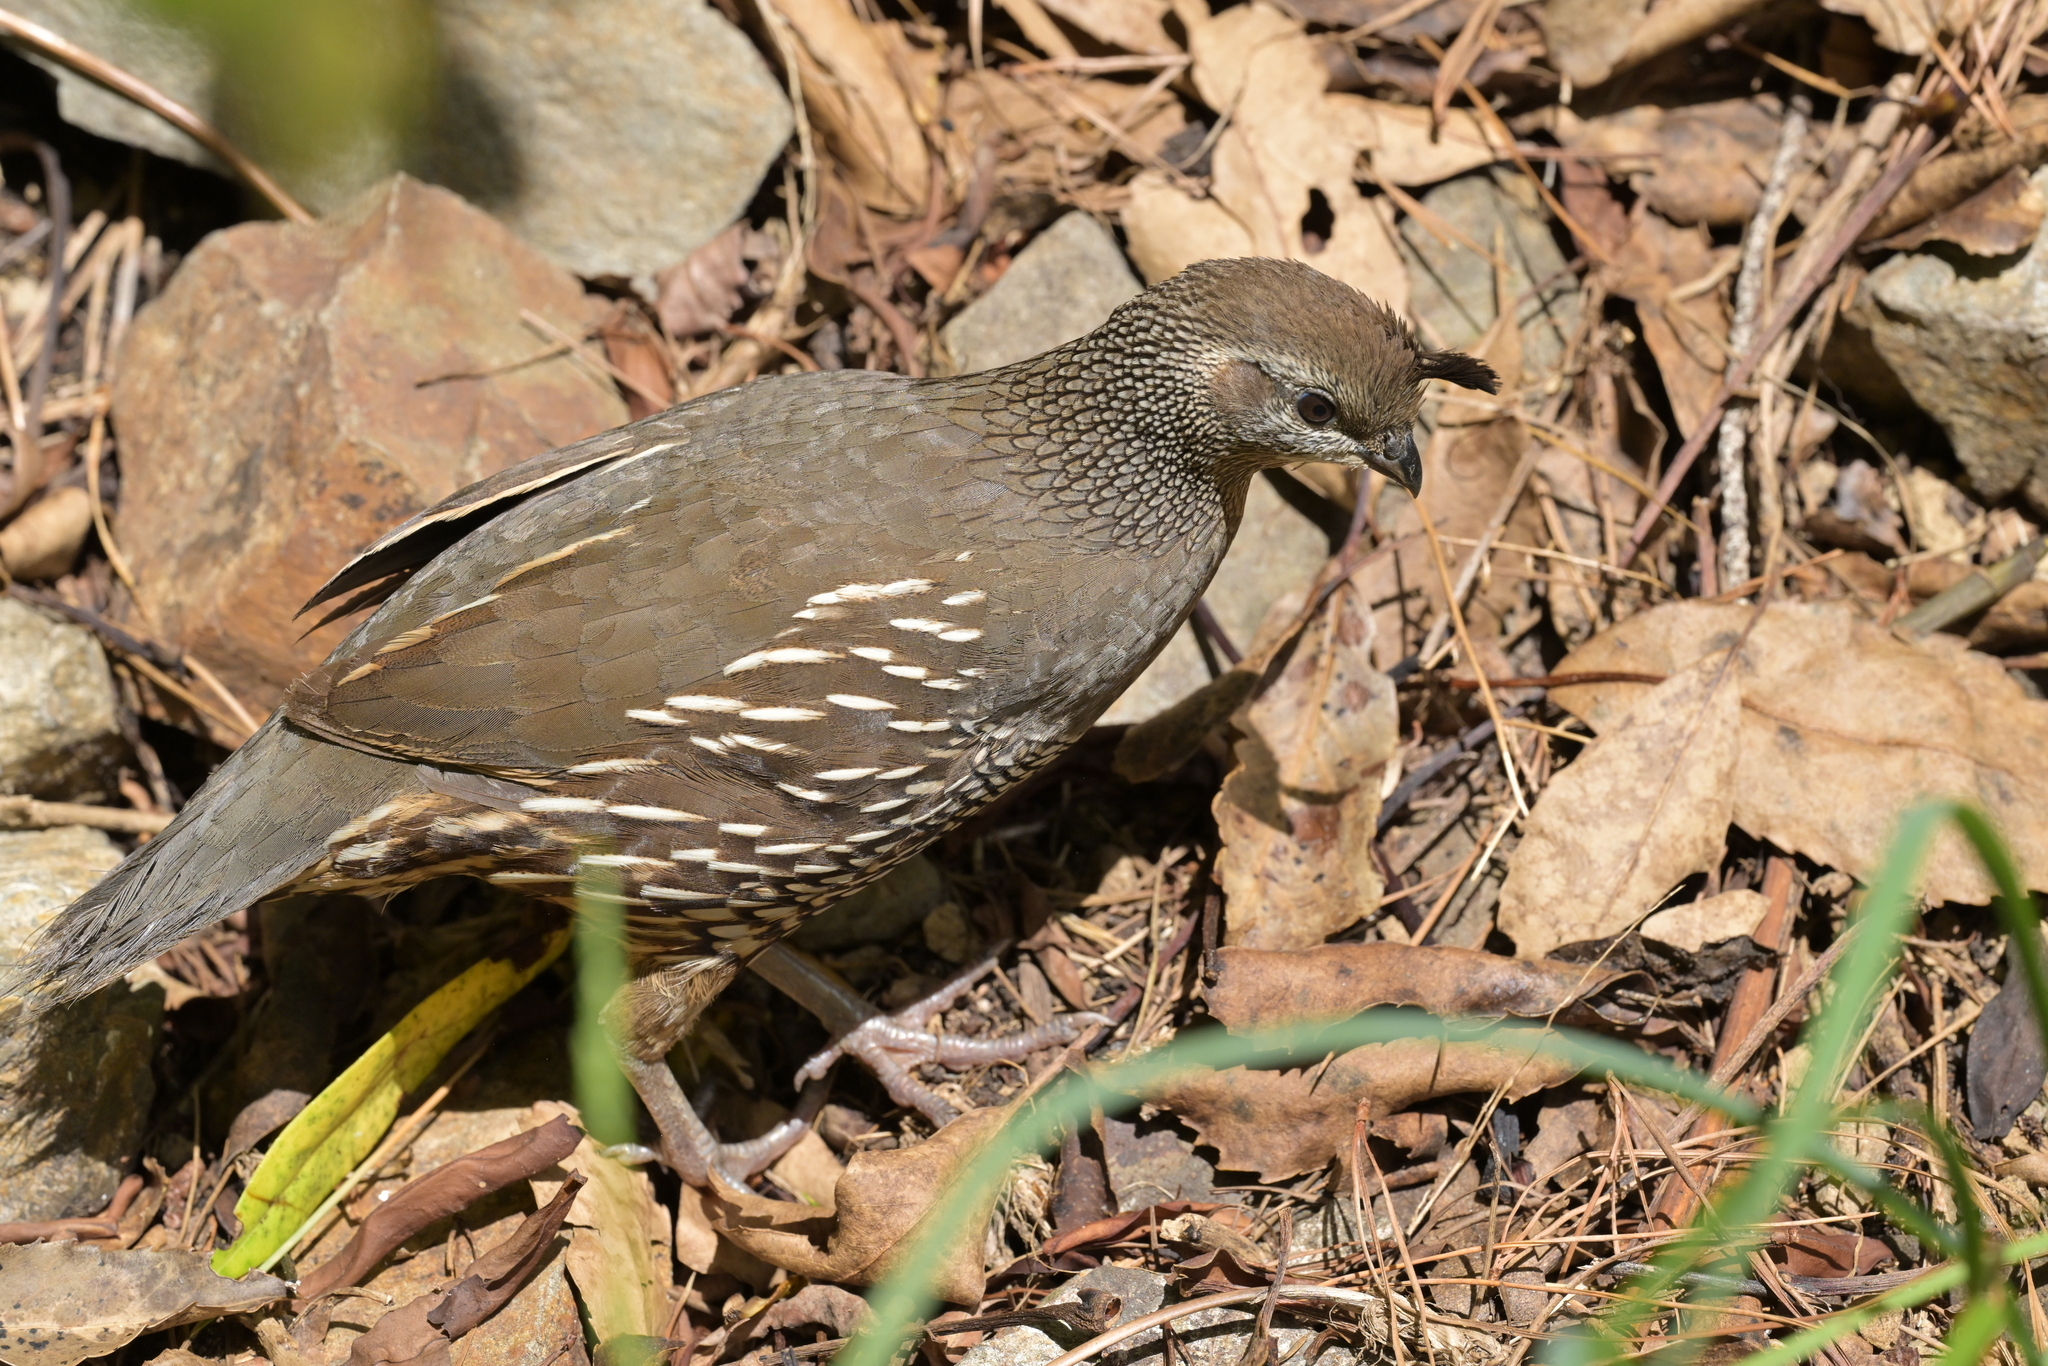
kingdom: Animalia
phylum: Chordata
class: Aves
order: Galliformes
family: Odontophoridae
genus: Callipepla
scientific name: Callipepla californica
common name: California quail
